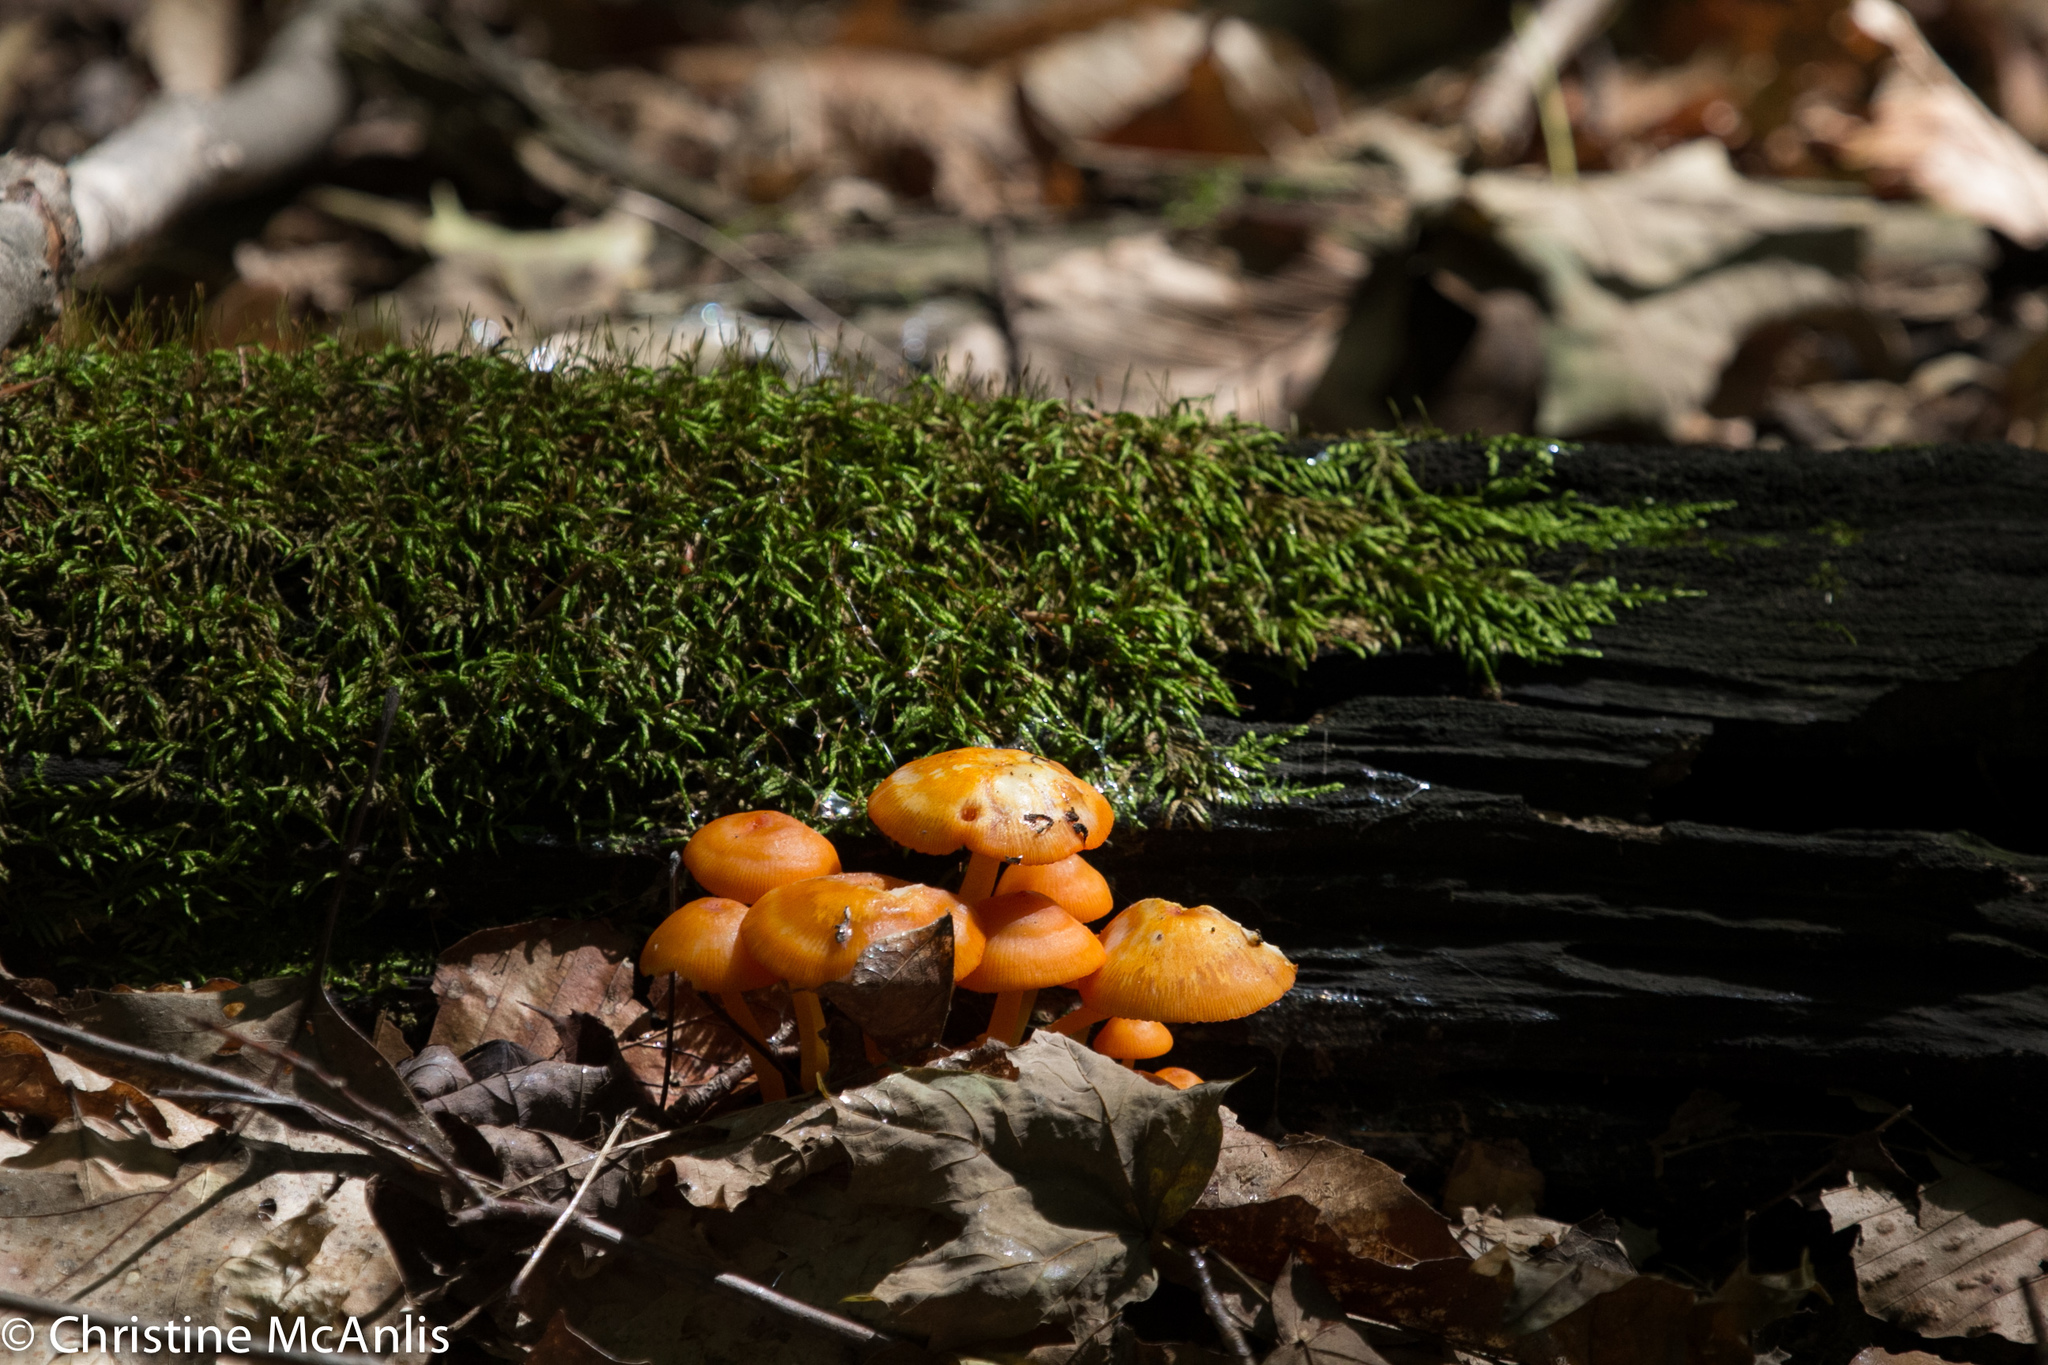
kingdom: Fungi
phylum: Basidiomycota
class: Agaricomycetes
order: Agaricales
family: Mycenaceae
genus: Mycena
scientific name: Mycena leaiana
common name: Orange mycena
